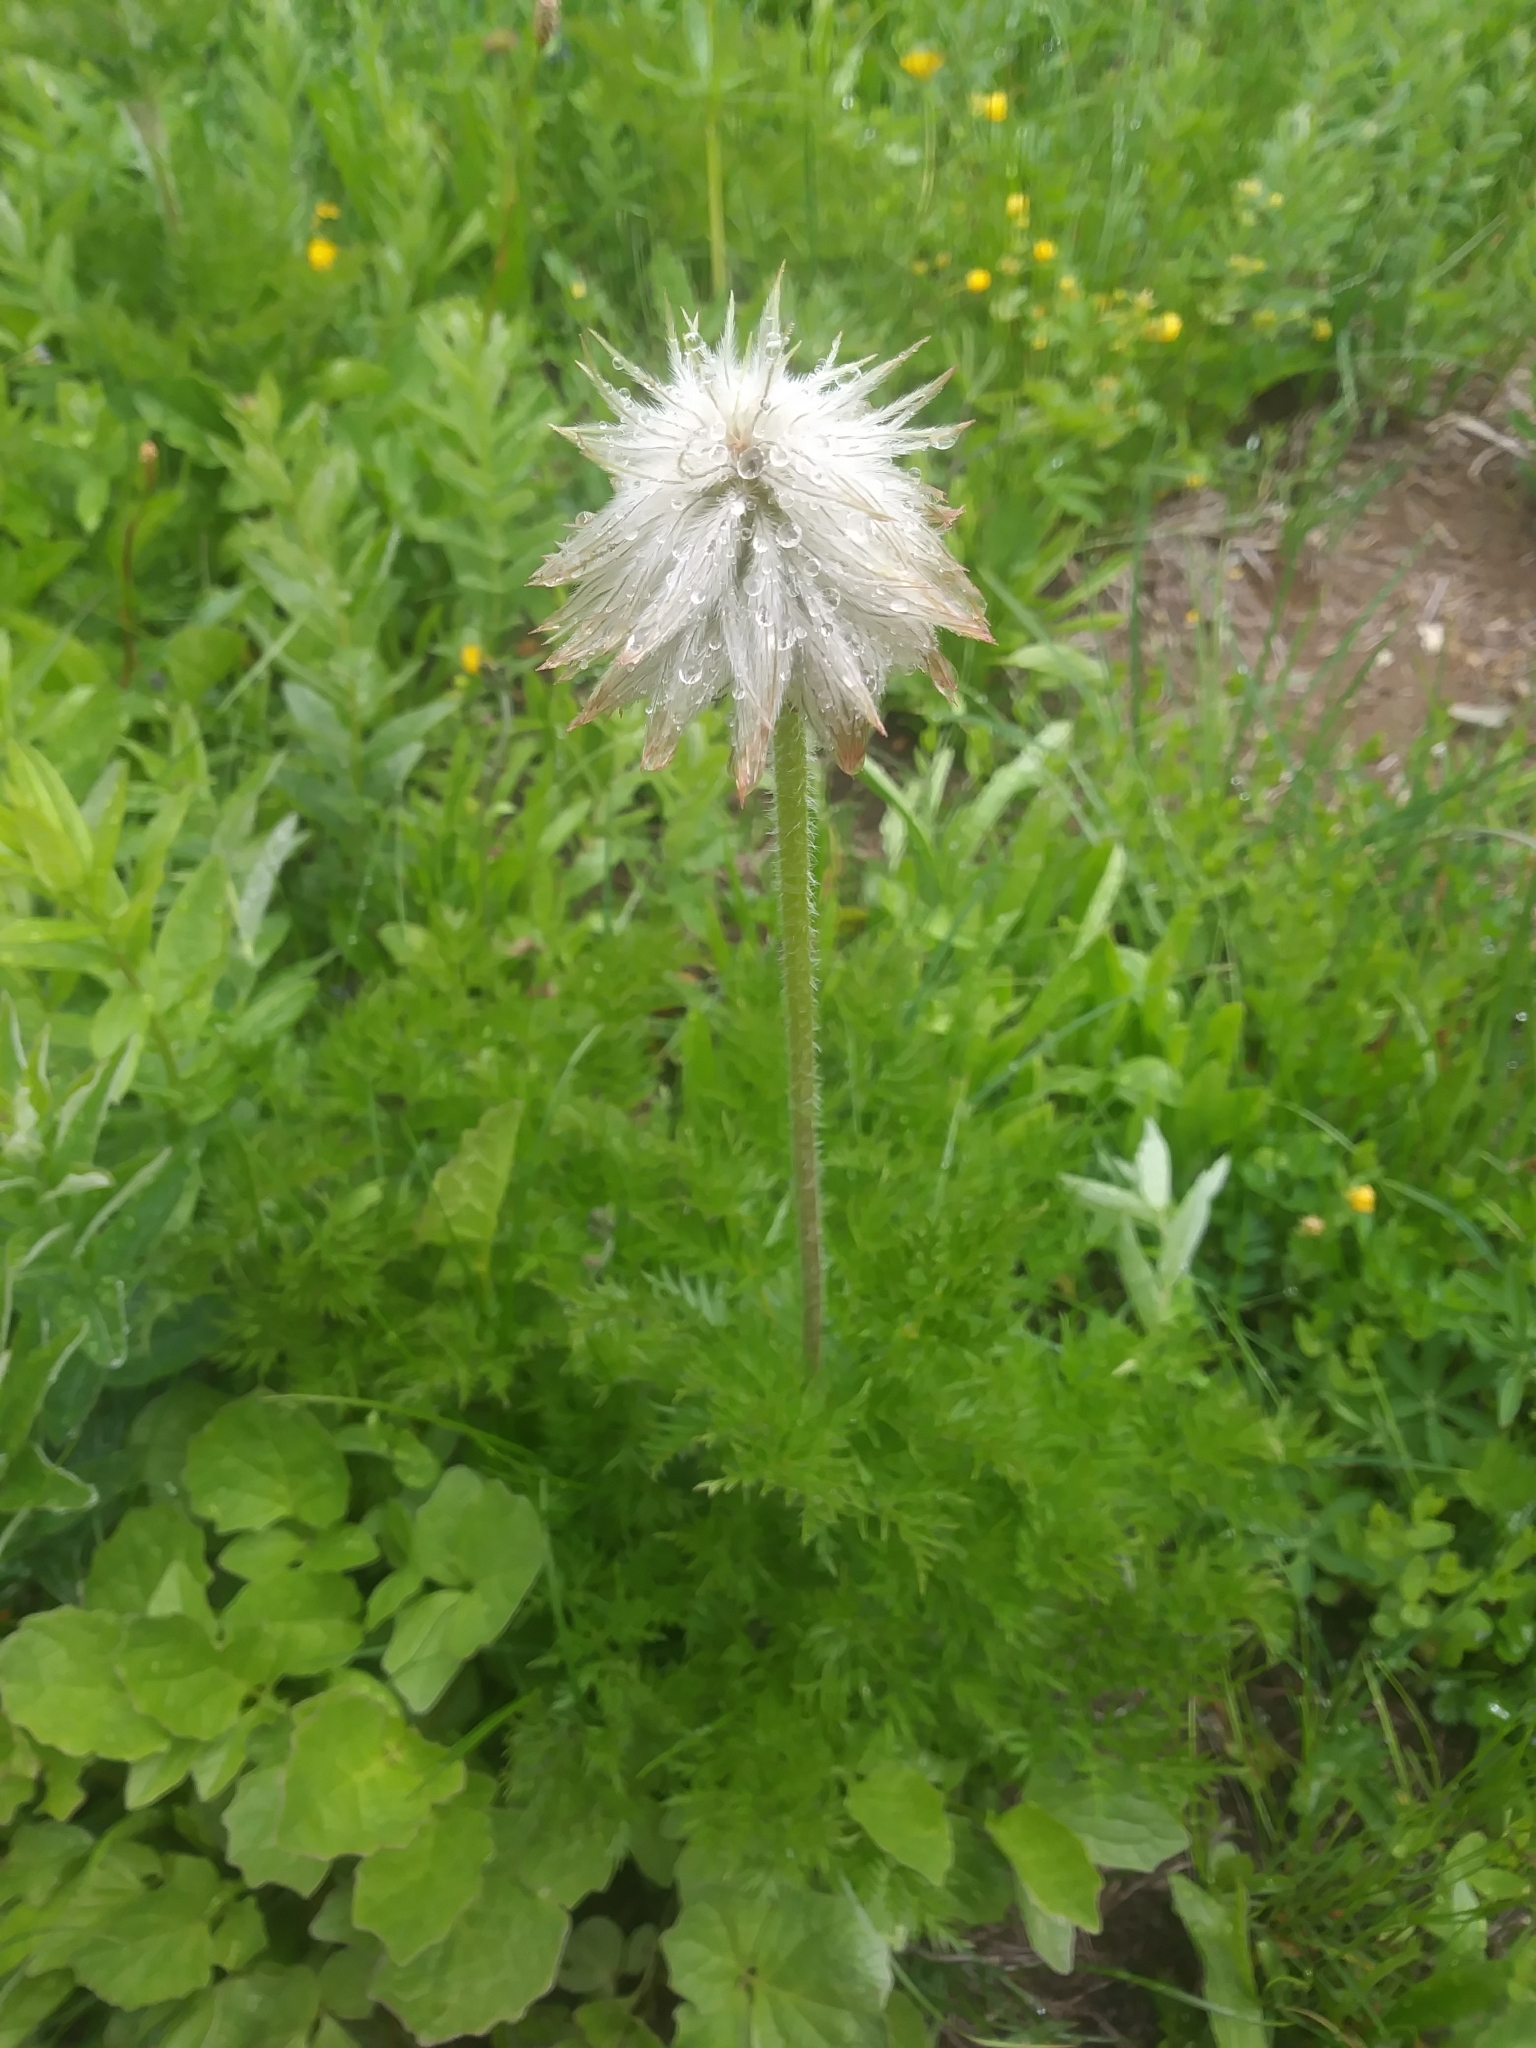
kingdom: Plantae
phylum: Tracheophyta
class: Magnoliopsida
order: Ranunculales
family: Ranunculaceae
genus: Pulsatilla
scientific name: Pulsatilla occidentalis
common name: Mountain pasqueflower
